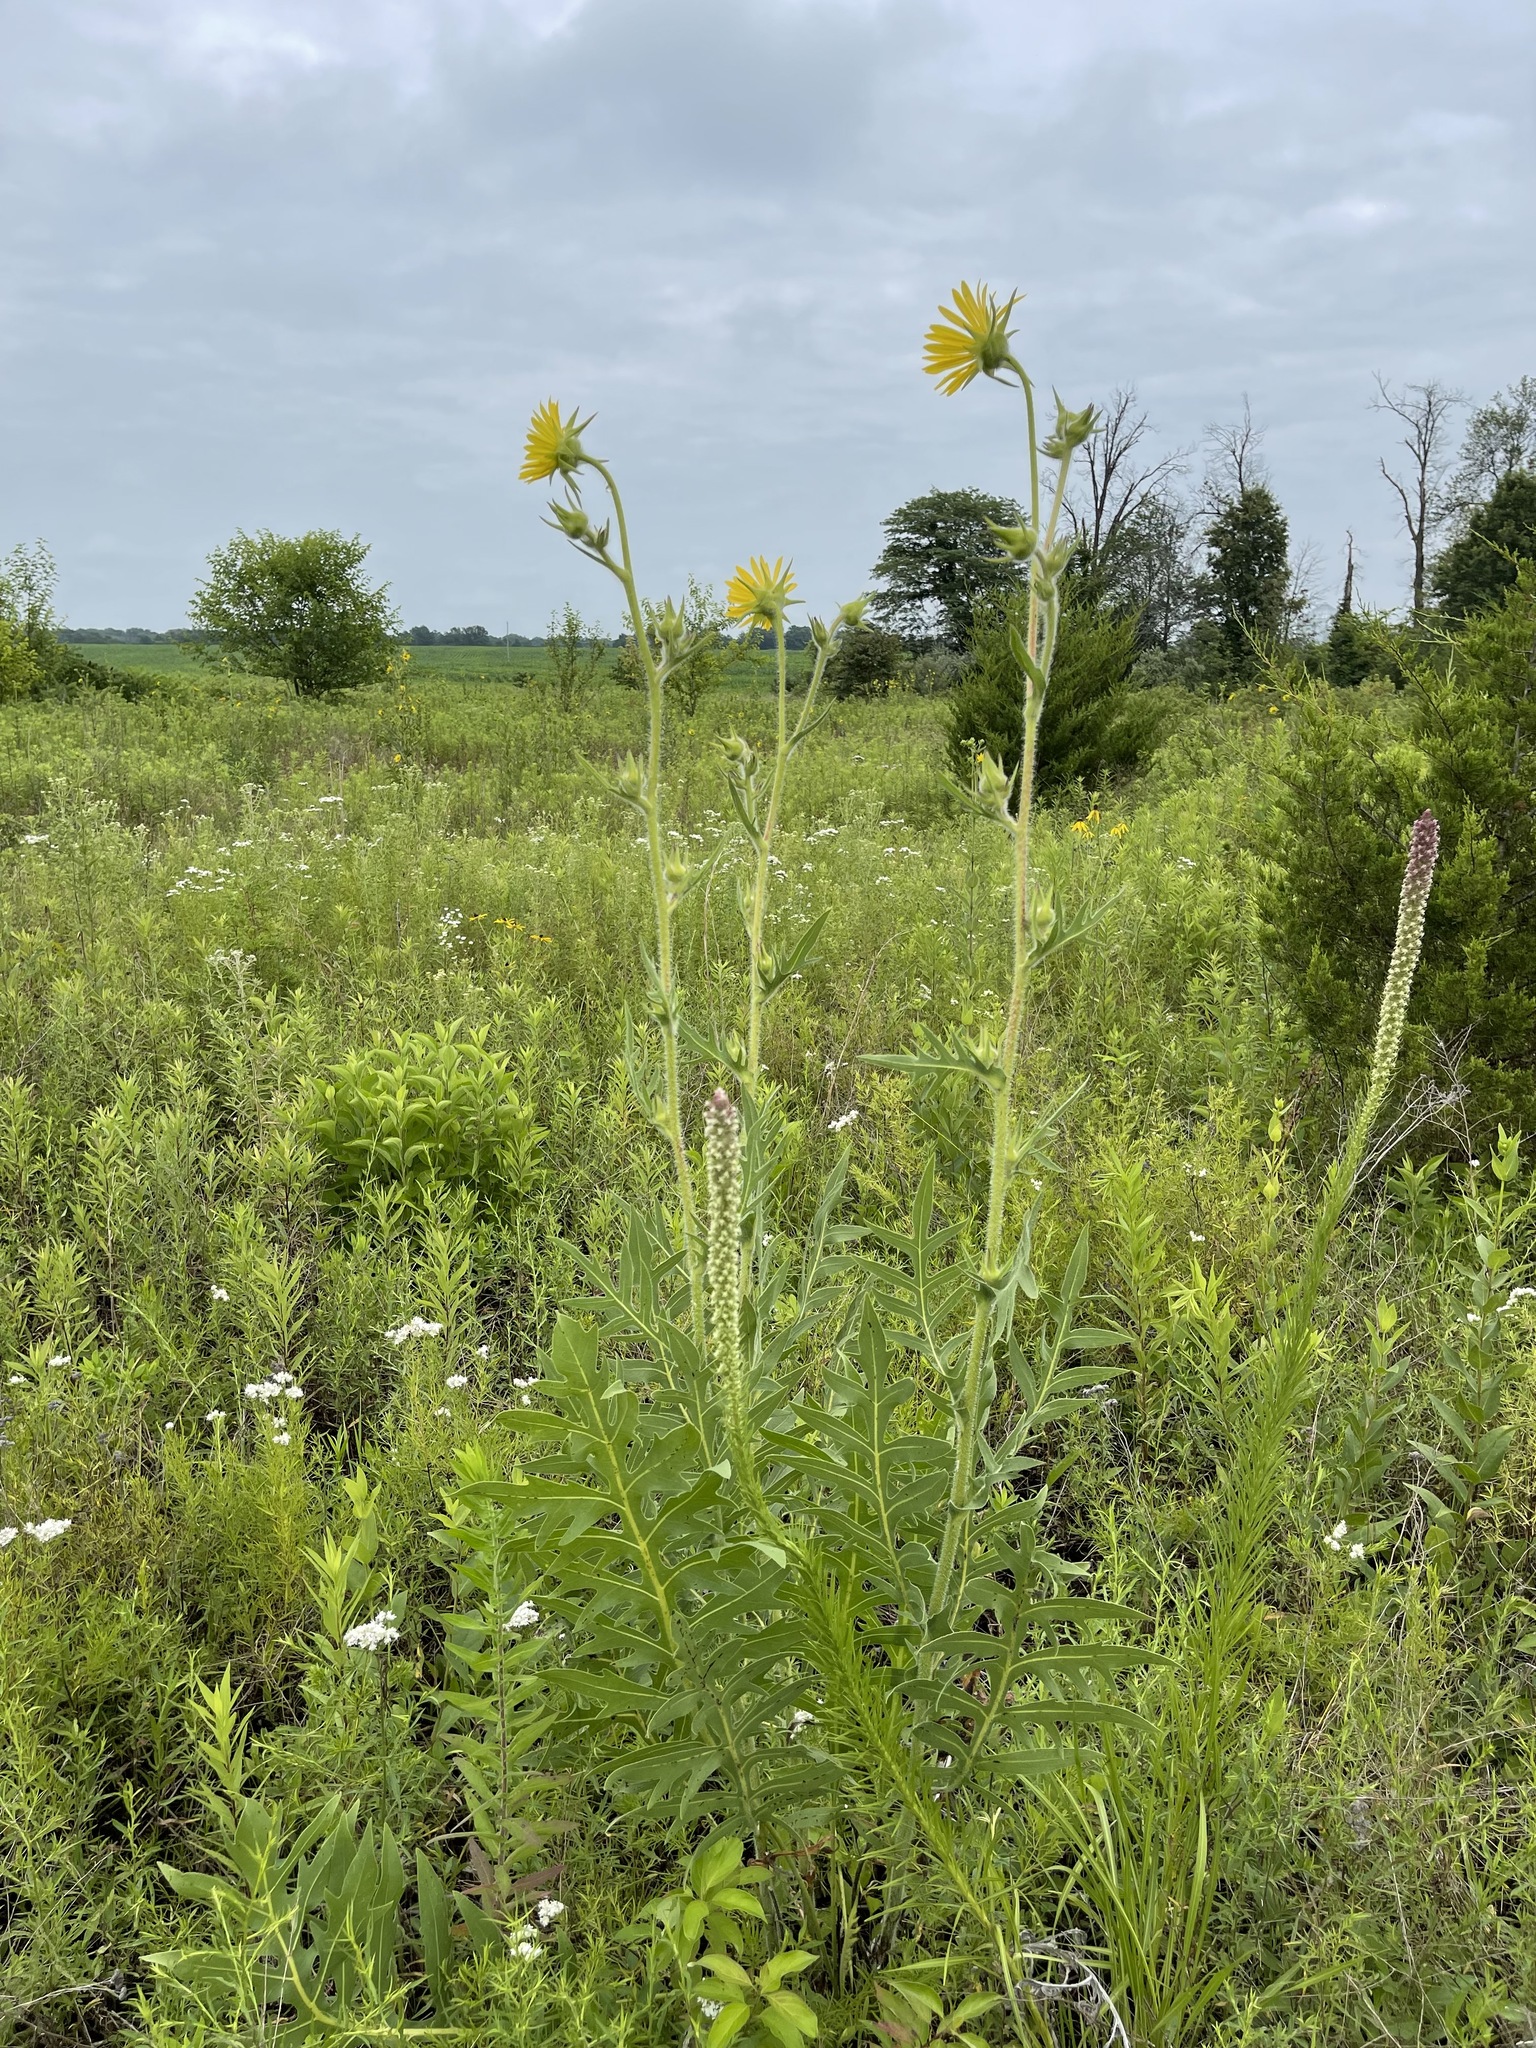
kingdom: Plantae
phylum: Tracheophyta
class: Magnoliopsida
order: Asterales
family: Asteraceae
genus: Silphium
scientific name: Silphium laciniatum
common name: Polarplant
